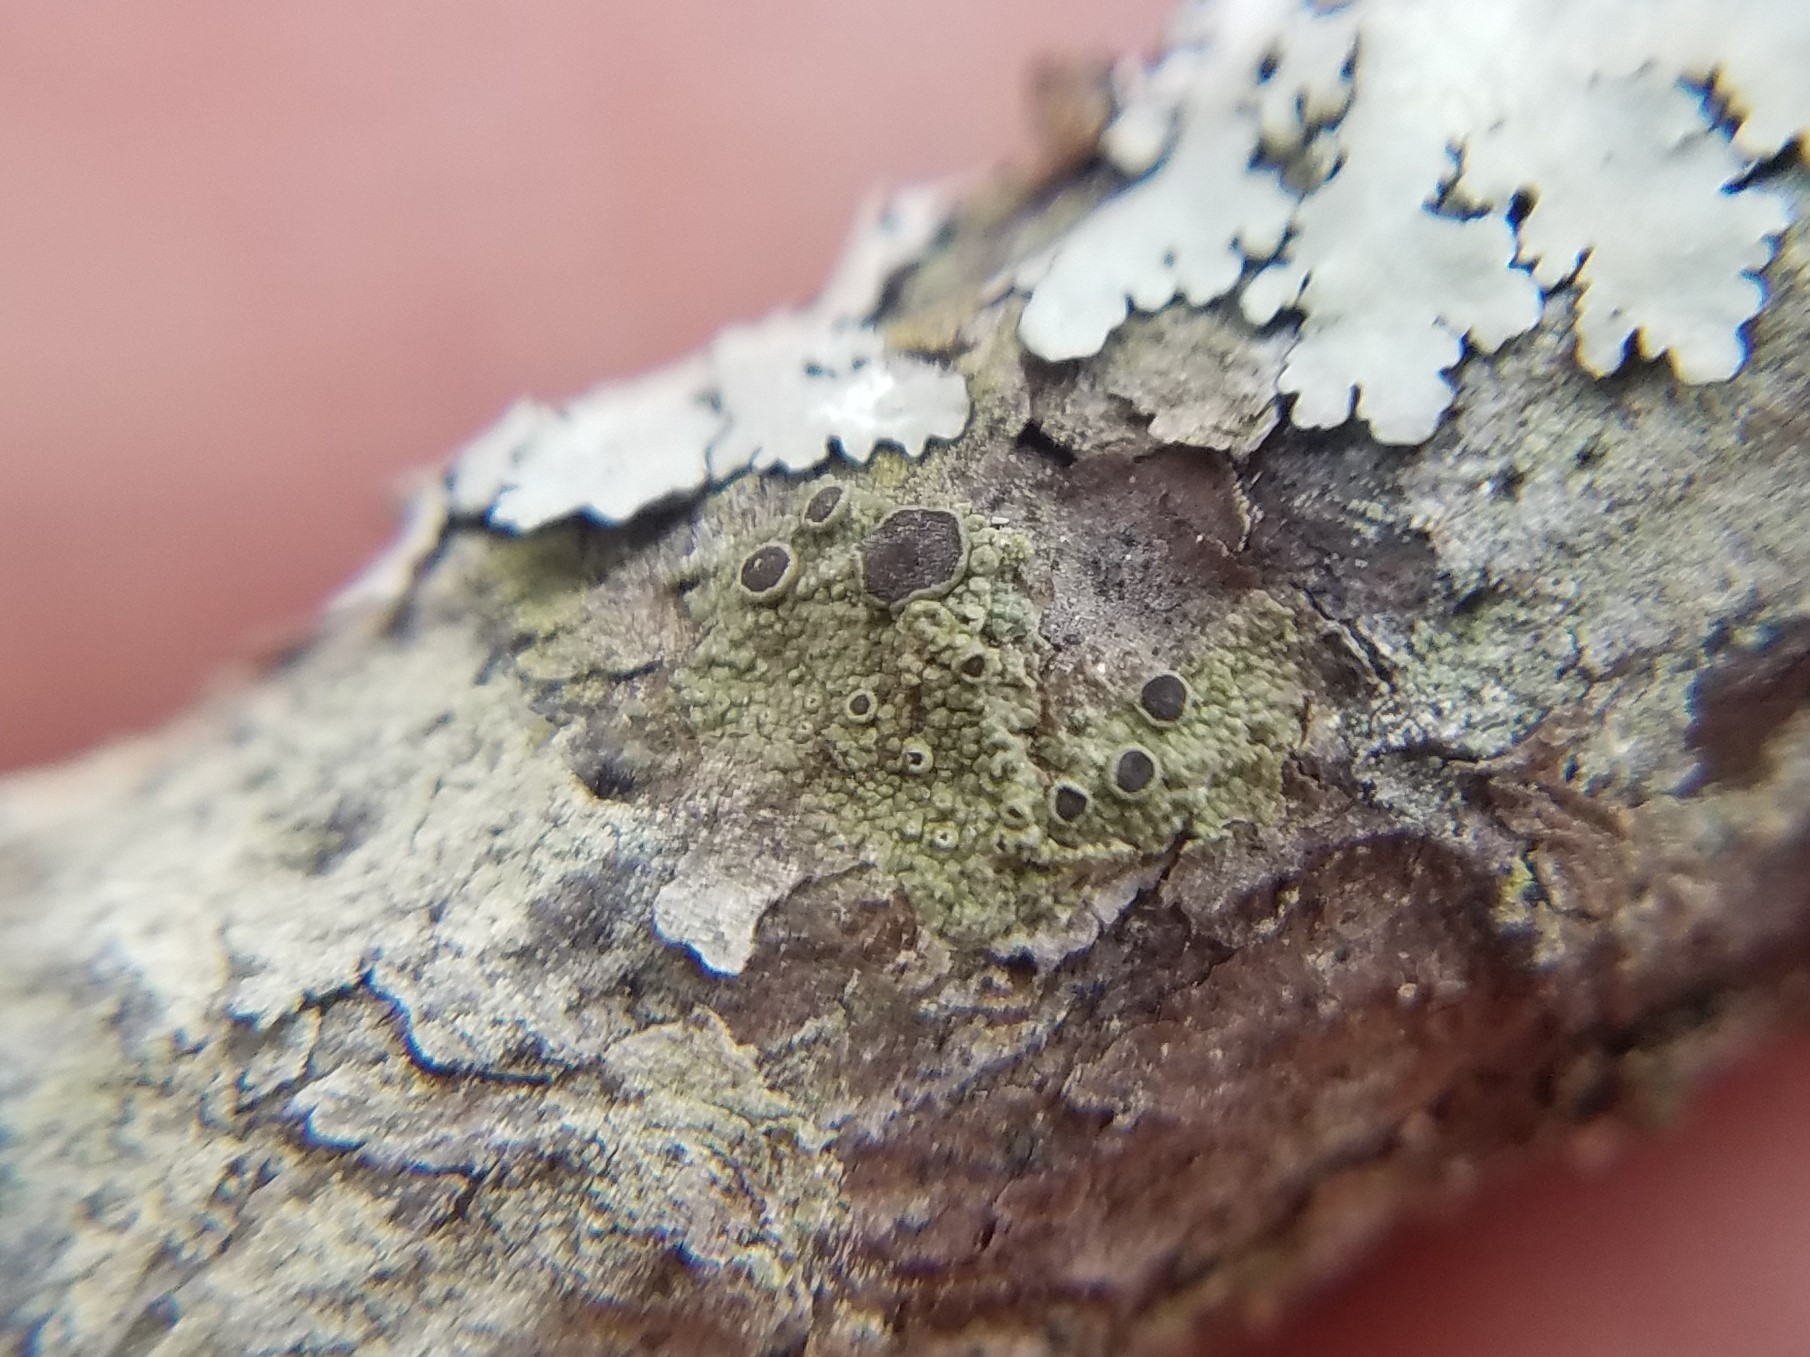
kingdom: Fungi
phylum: Ascomycota
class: Lecanoromycetes
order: Umbilicariales
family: Fuscideaceae
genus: Maronea
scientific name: Maronea polyphaea
